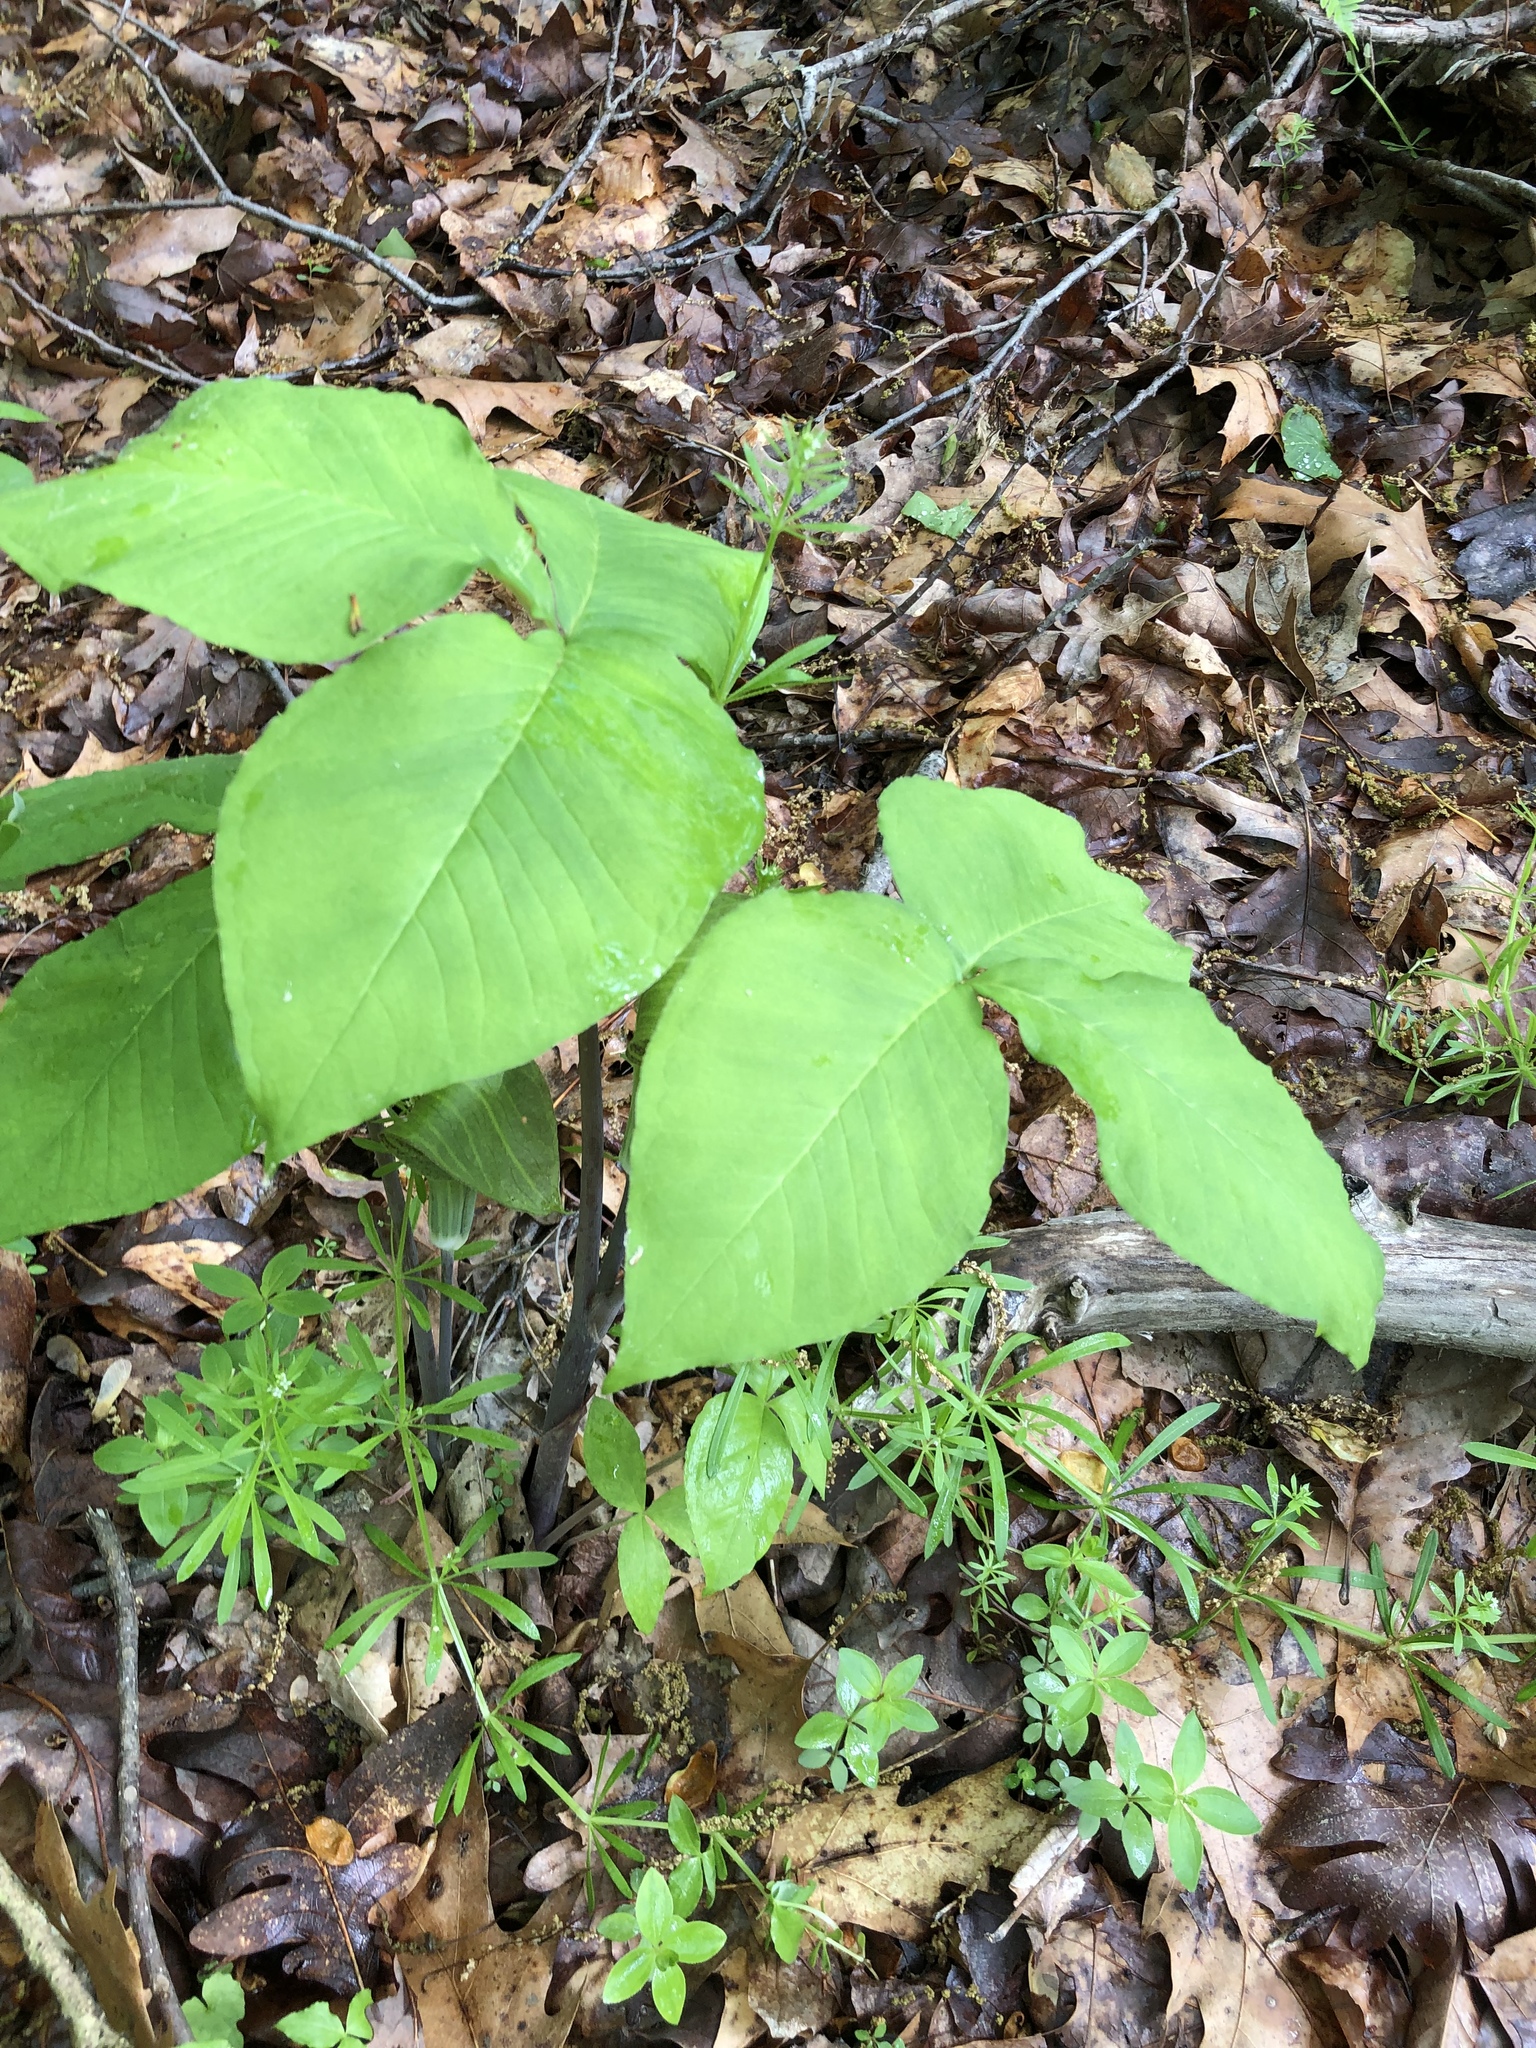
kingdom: Plantae
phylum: Tracheophyta
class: Liliopsida
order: Alismatales
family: Araceae
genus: Arisaema
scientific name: Arisaema triphyllum
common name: Jack-in-the-pulpit
